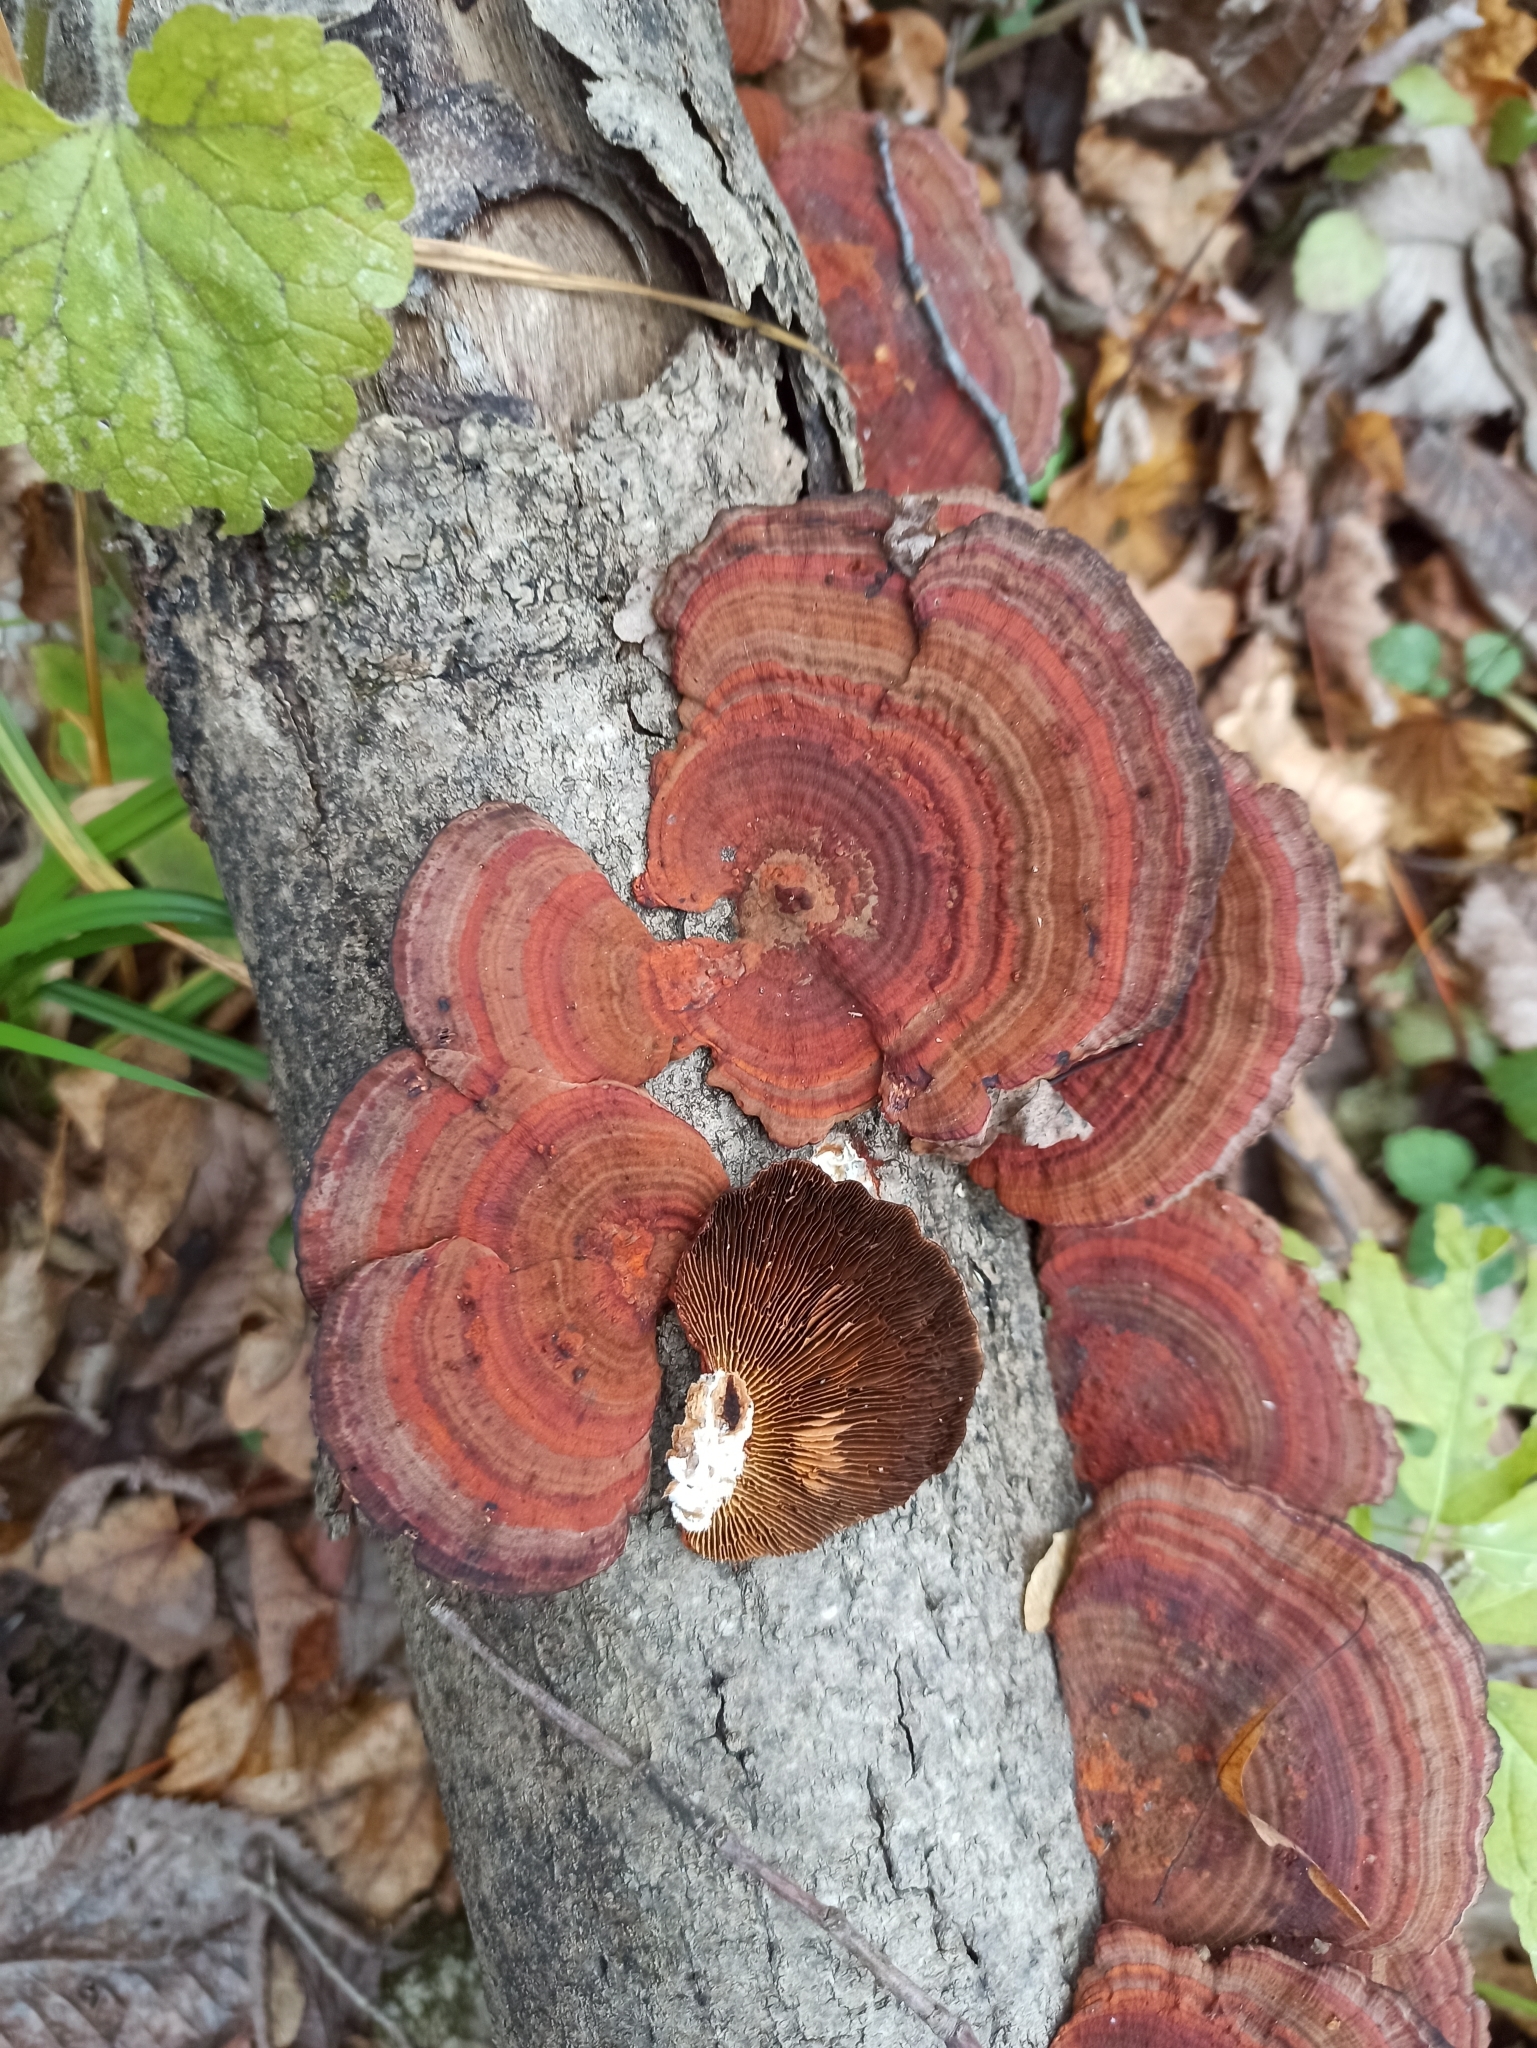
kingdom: Fungi
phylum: Basidiomycota
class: Agaricomycetes
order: Polyporales
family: Polyporaceae
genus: Daedaleopsis
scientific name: Daedaleopsis tricolor
